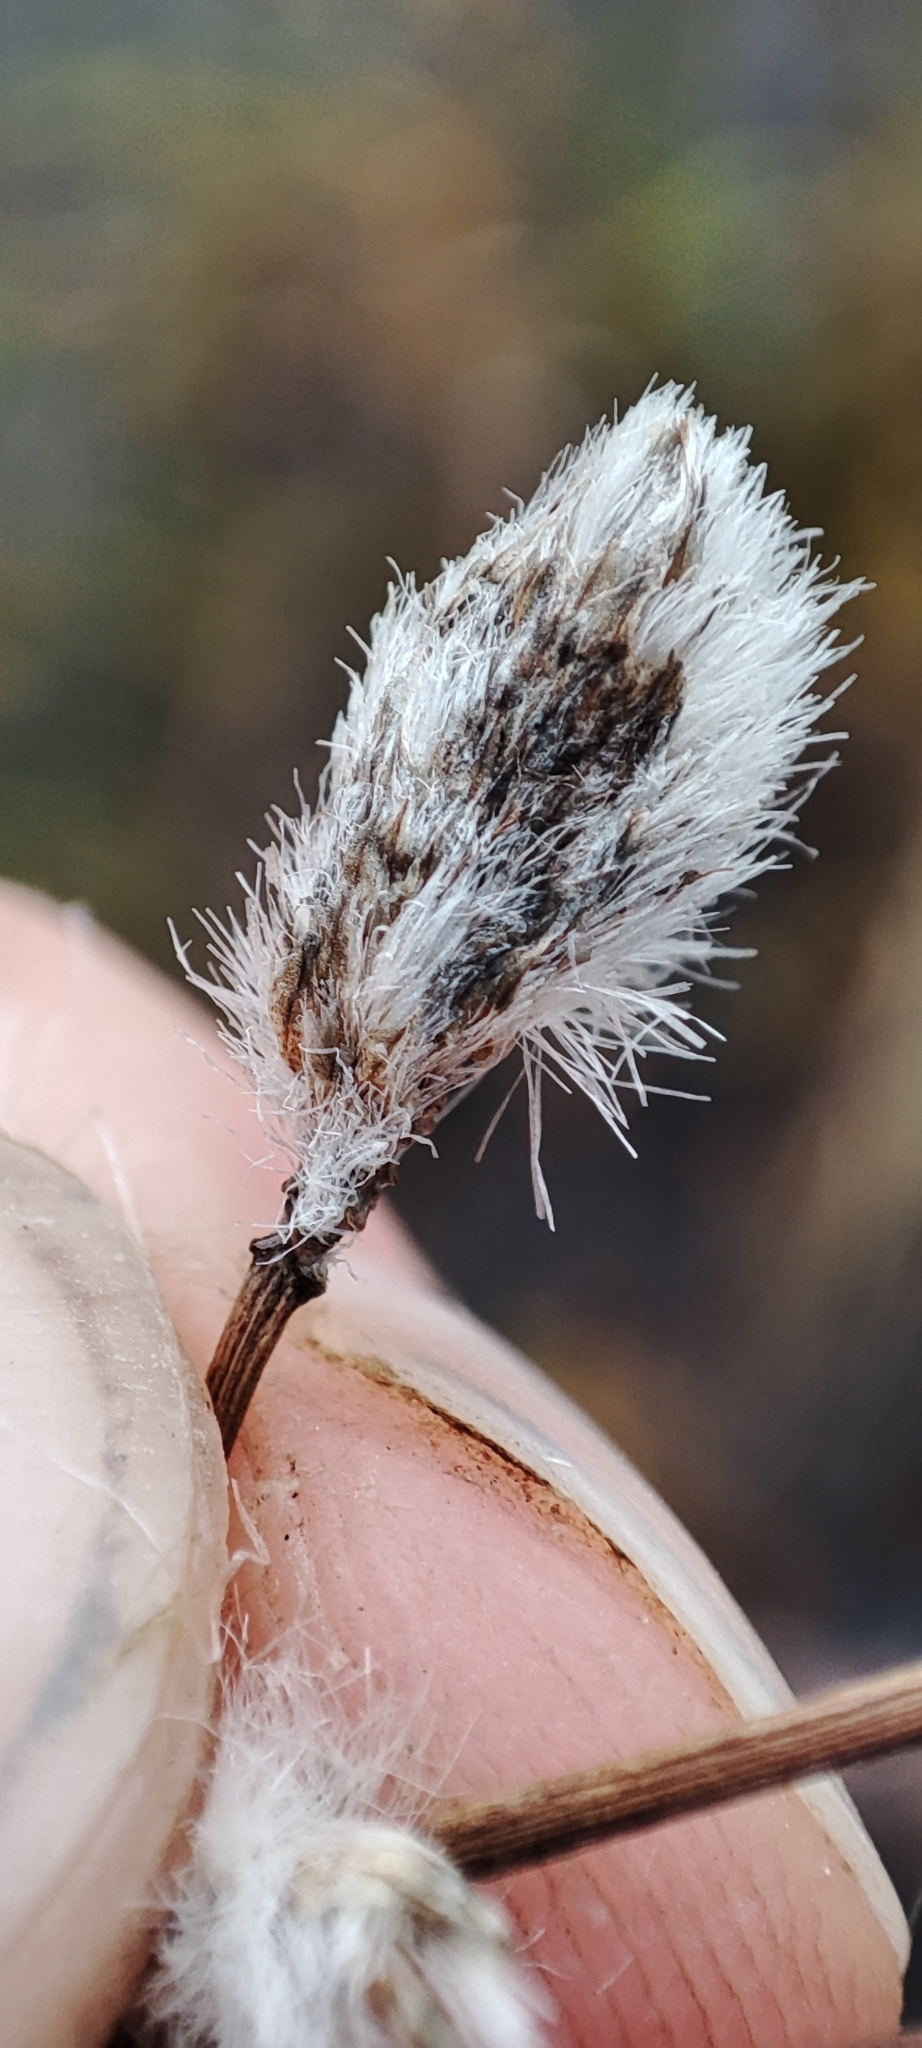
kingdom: Plantae
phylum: Tracheophyta
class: Liliopsida
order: Poales
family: Cyperaceae
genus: Eriophorum
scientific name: Eriophorum angustifolium
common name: Common cottongrass
